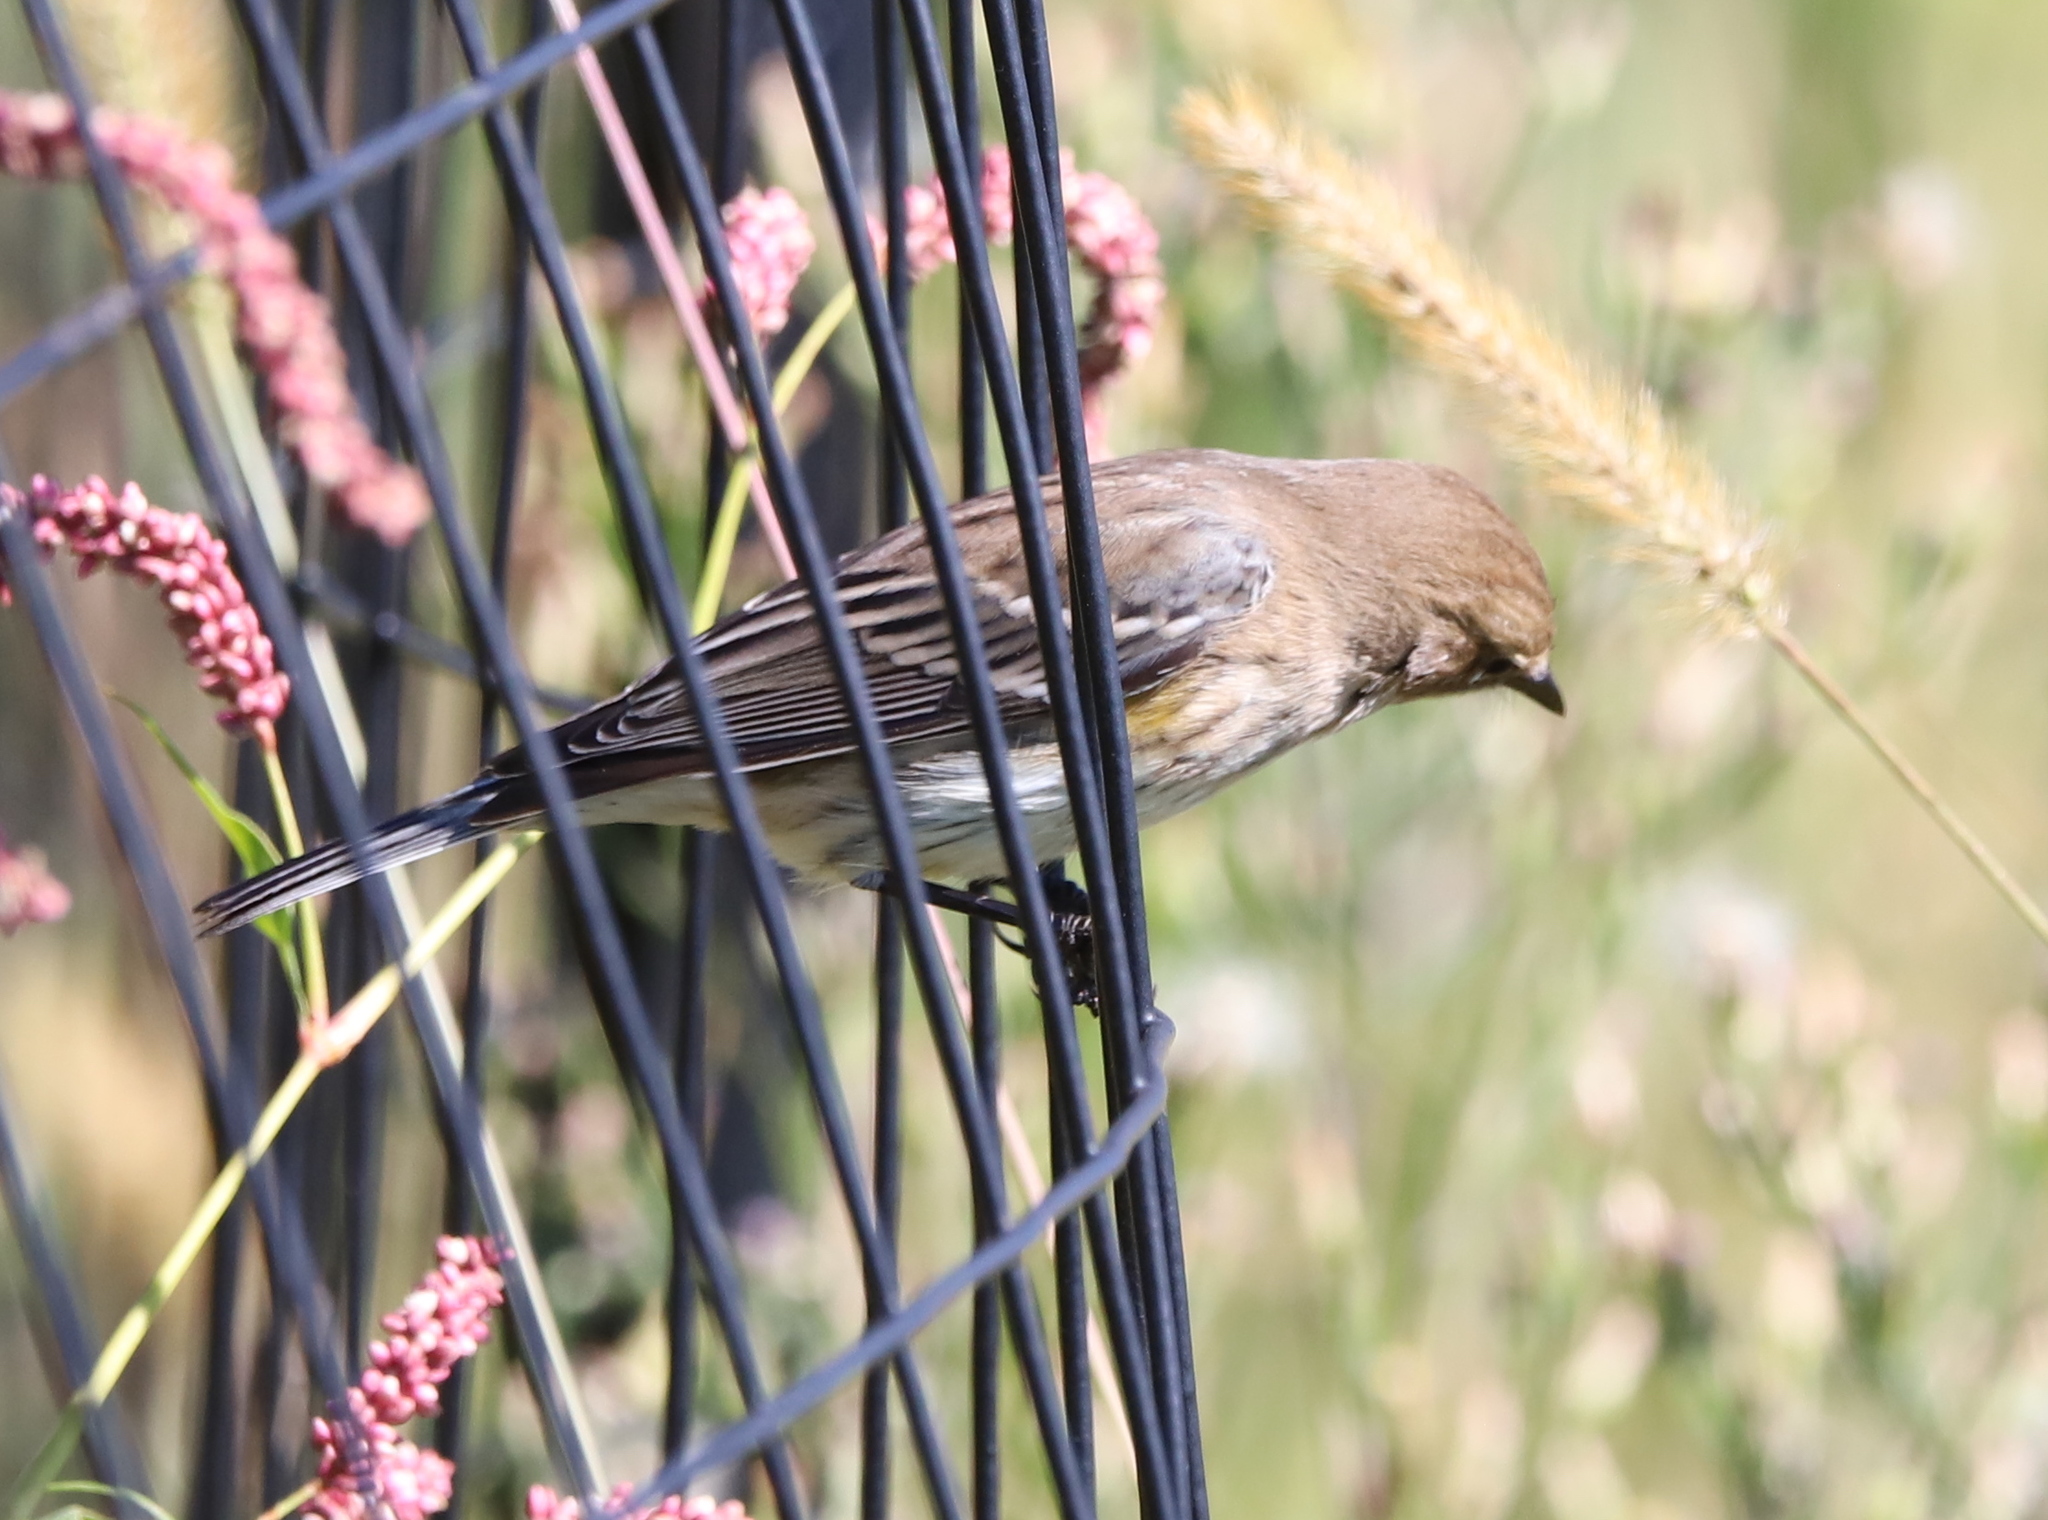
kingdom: Animalia
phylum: Chordata
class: Aves
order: Passeriformes
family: Parulidae
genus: Setophaga
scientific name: Setophaga coronata
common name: Myrtle warbler
